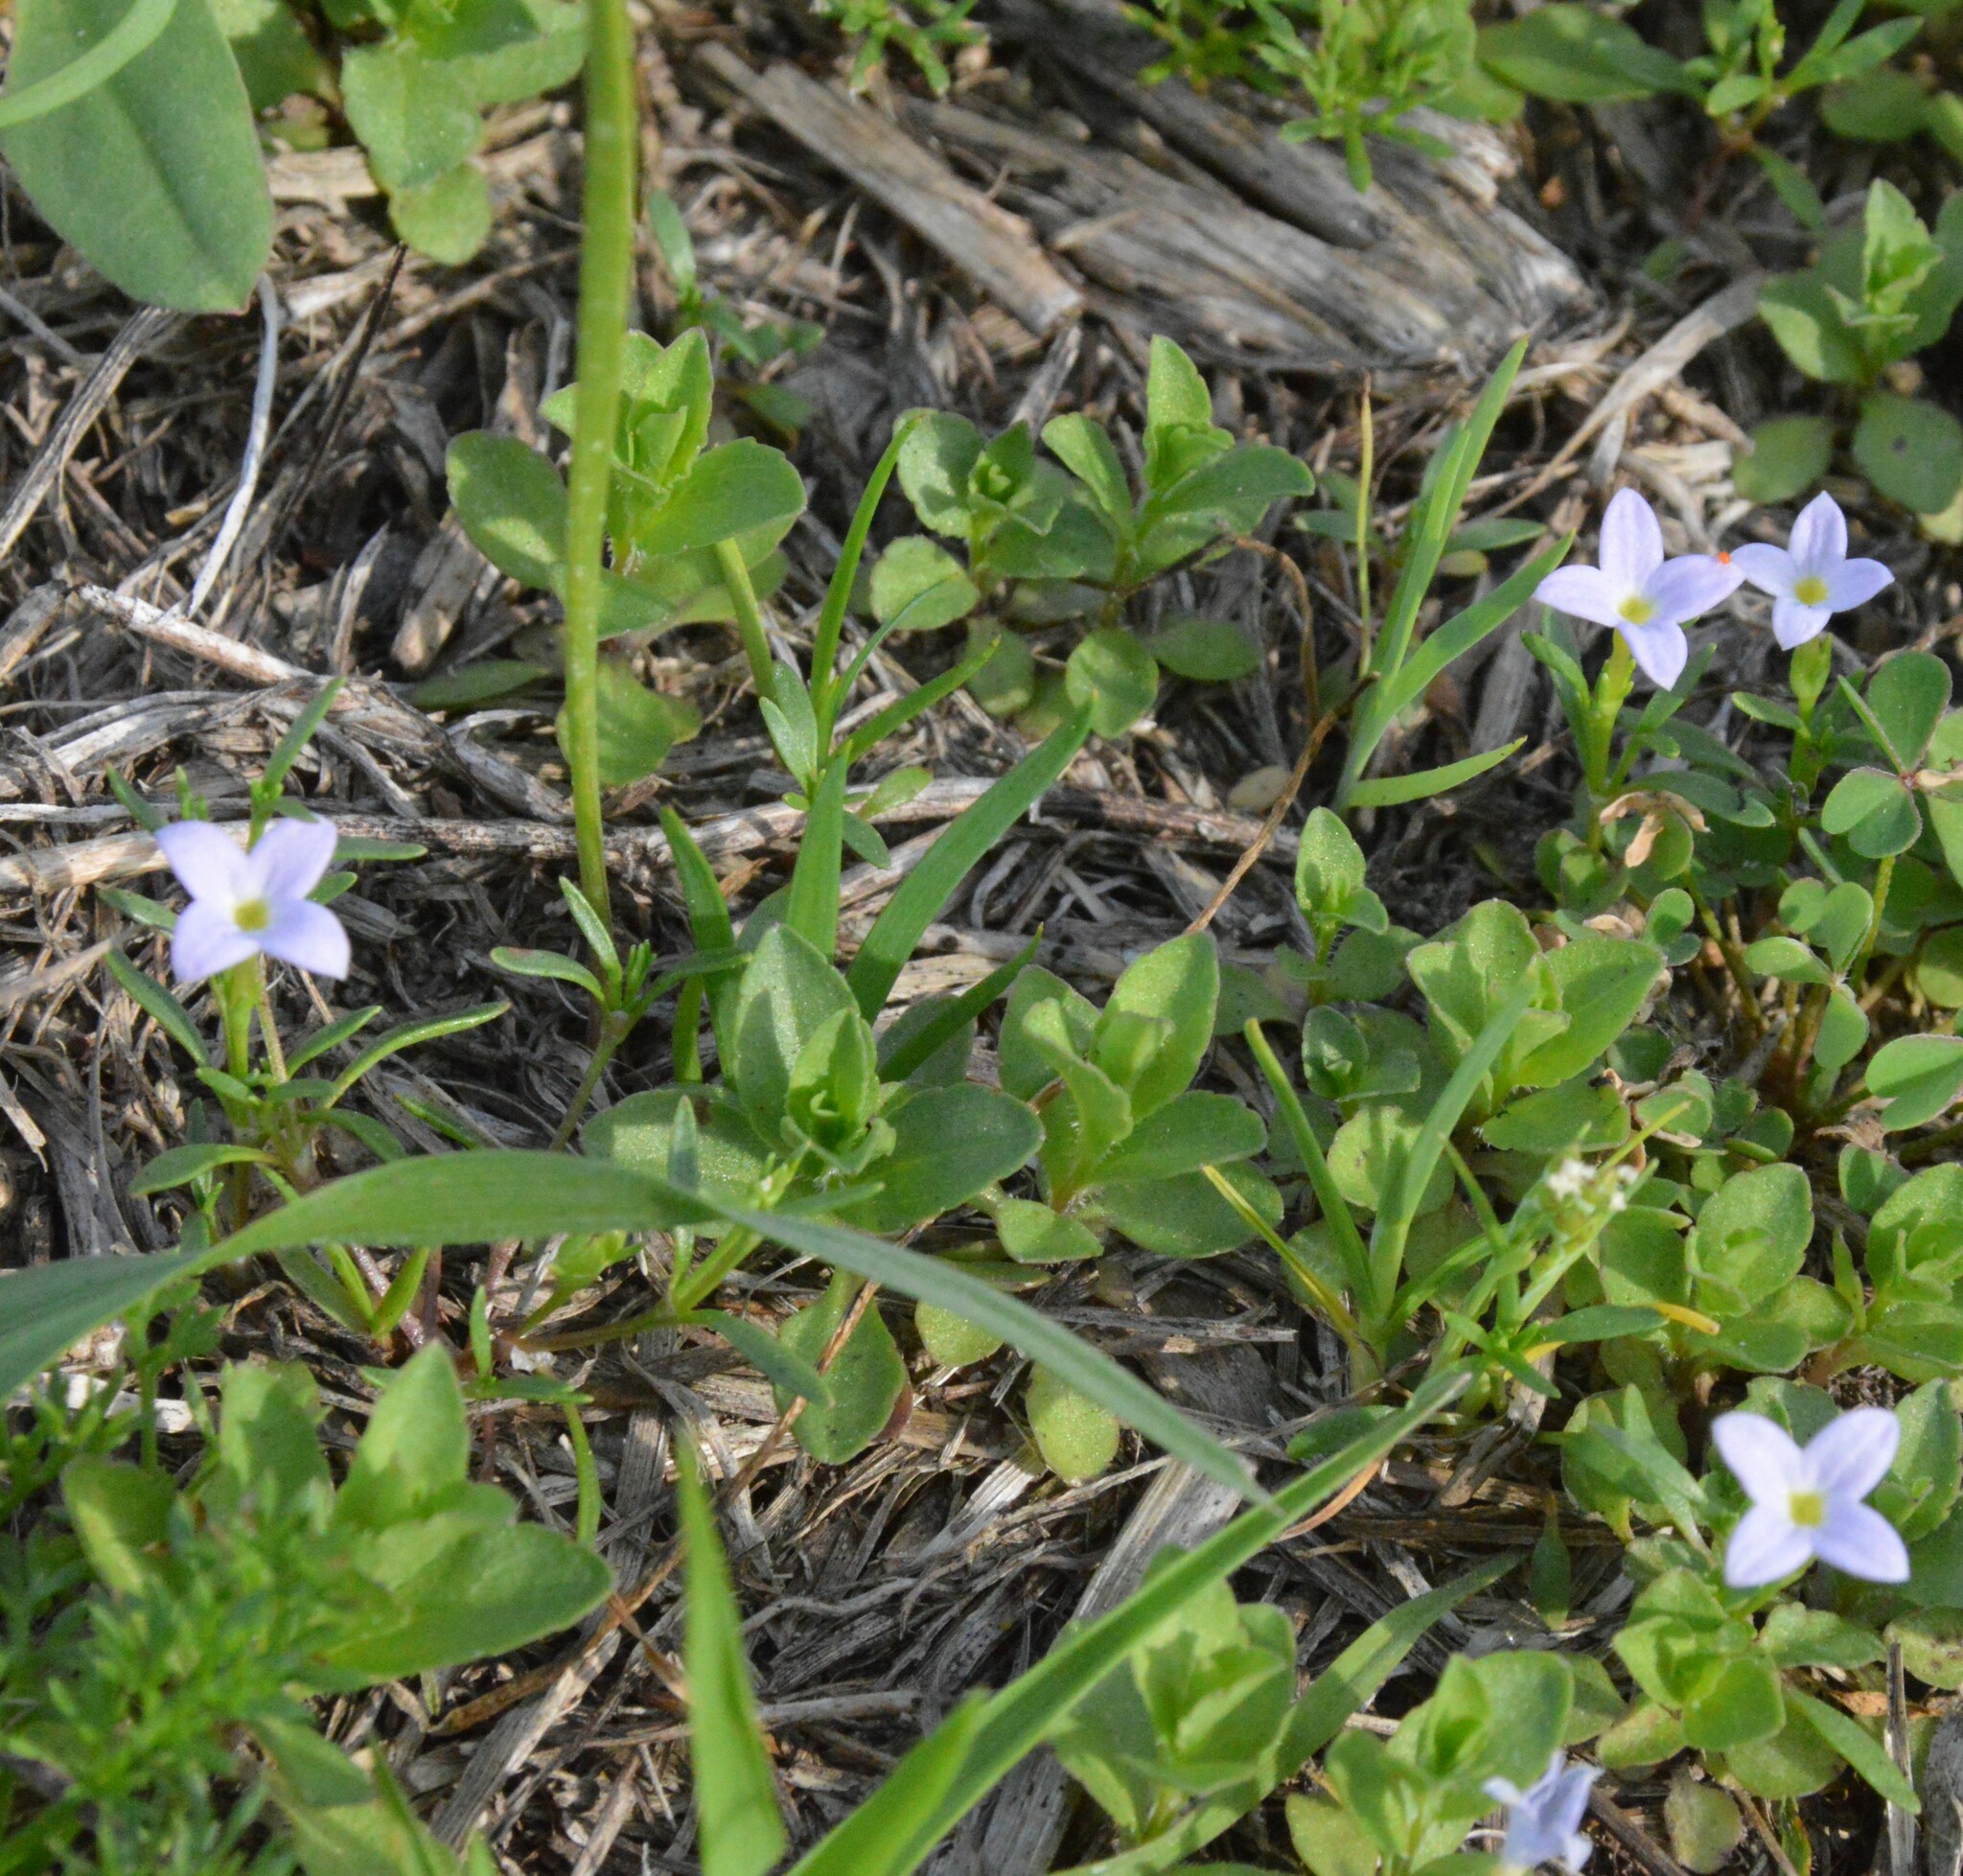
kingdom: Plantae
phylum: Tracheophyta
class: Magnoliopsida
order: Gentianales
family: Rubiaceae
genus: Houstonia
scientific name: Houstonia rosea
